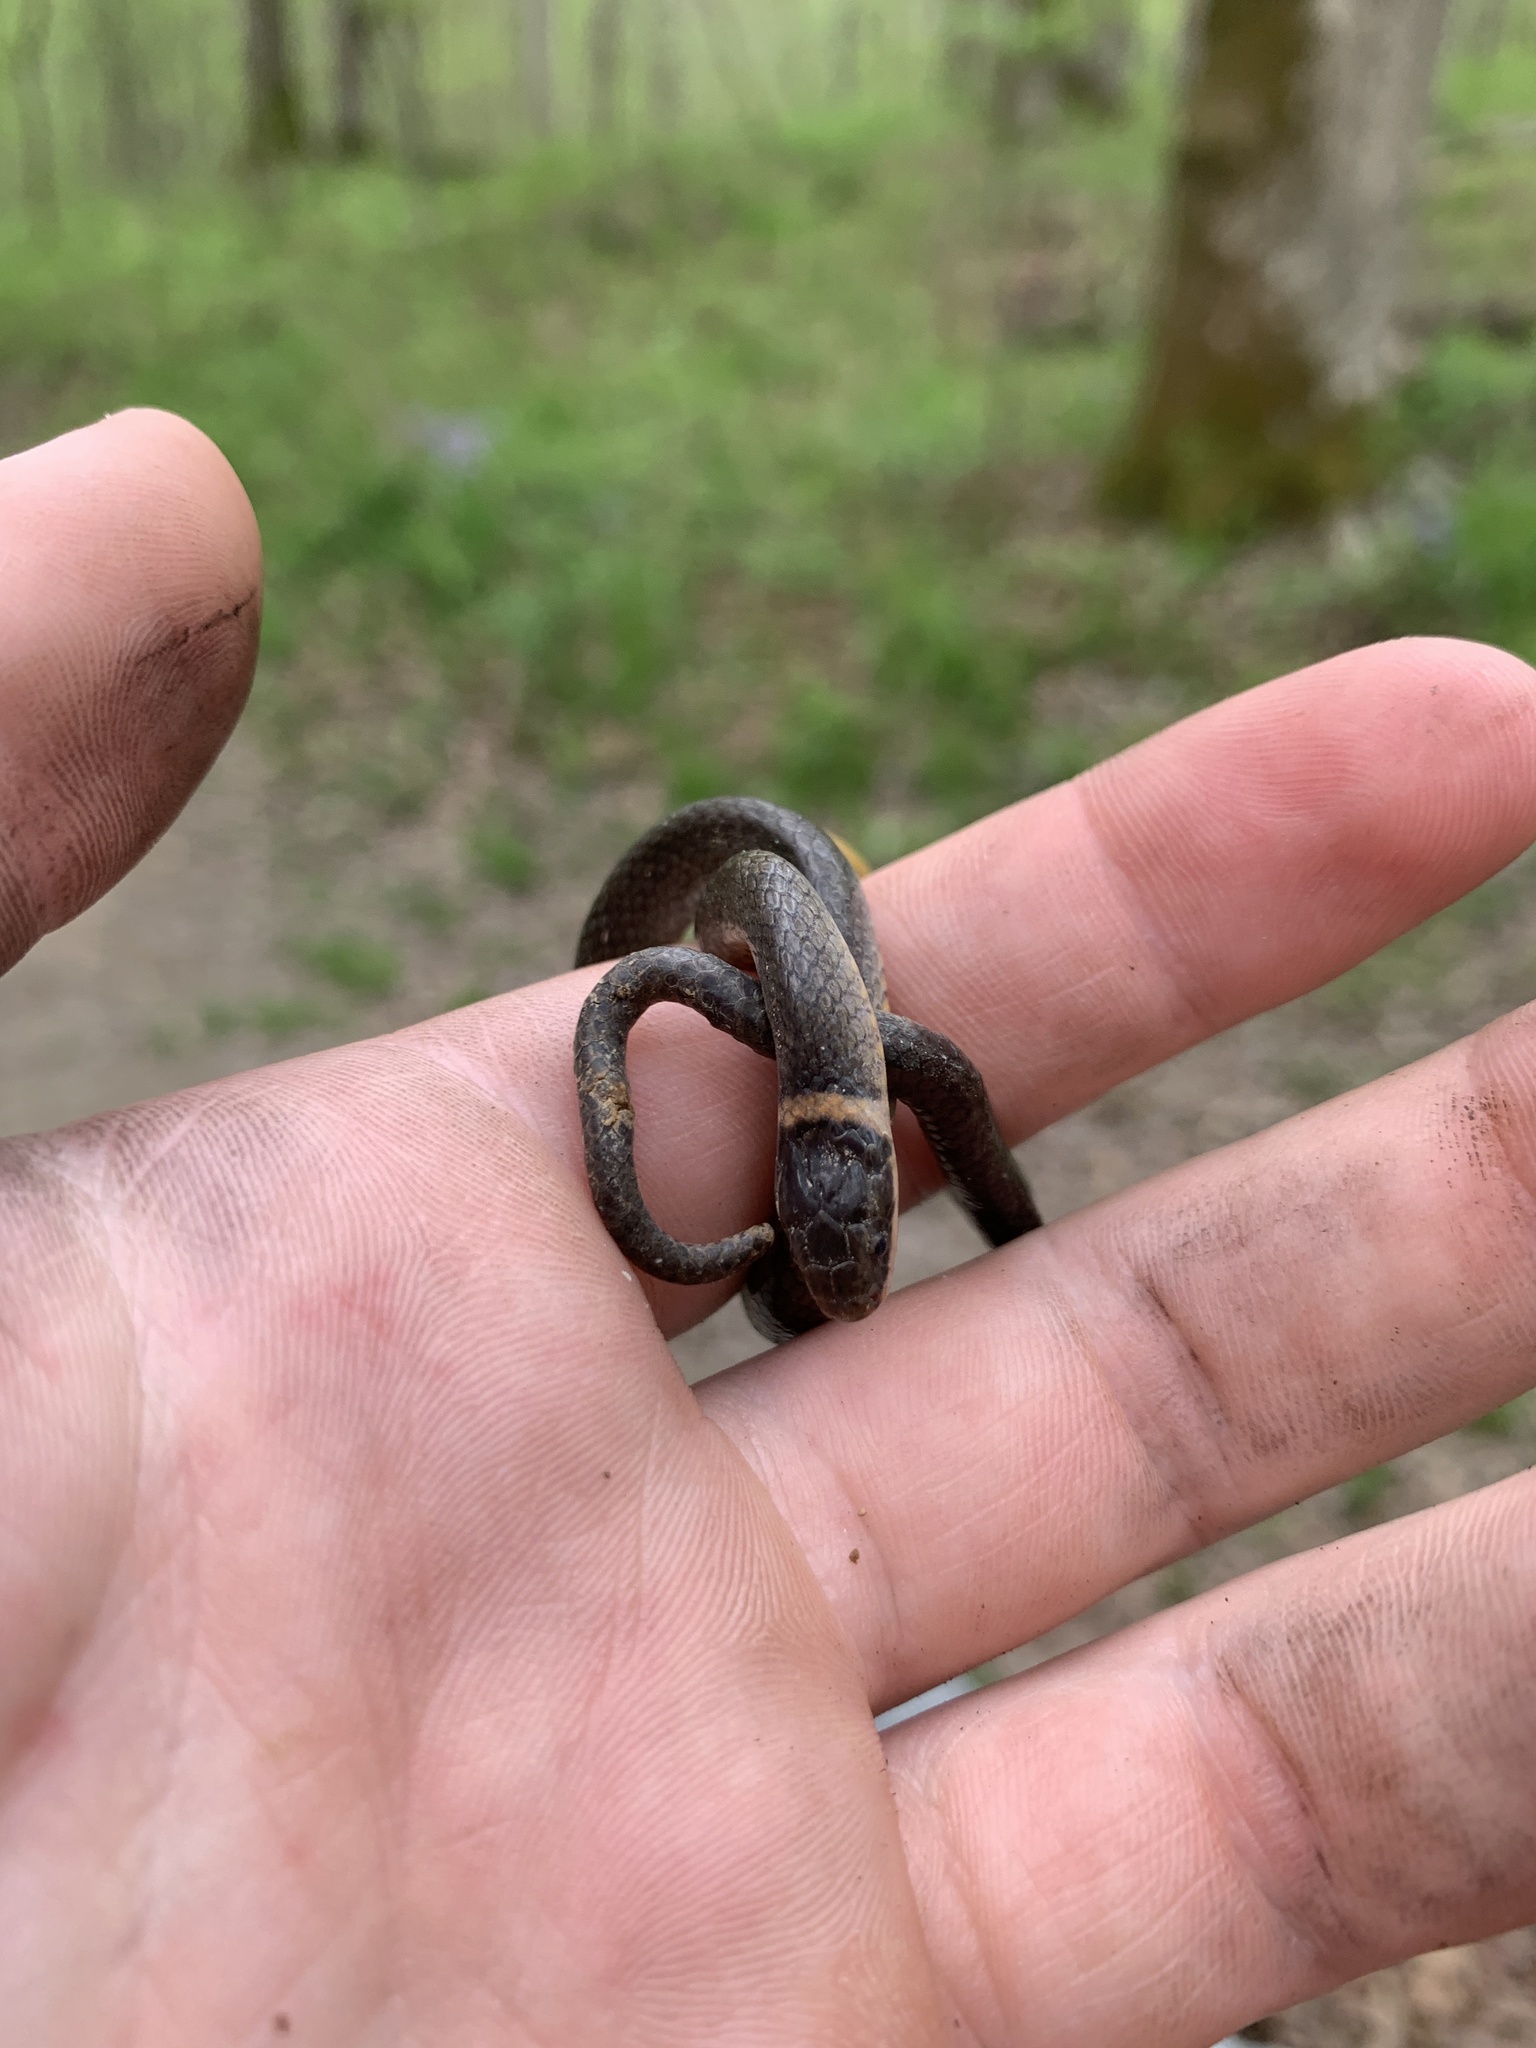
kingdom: Animalia
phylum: Chordata
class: Squamata
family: Colubridae
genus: Diadophis
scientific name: Diadophis punctatus
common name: Ringneck snake
